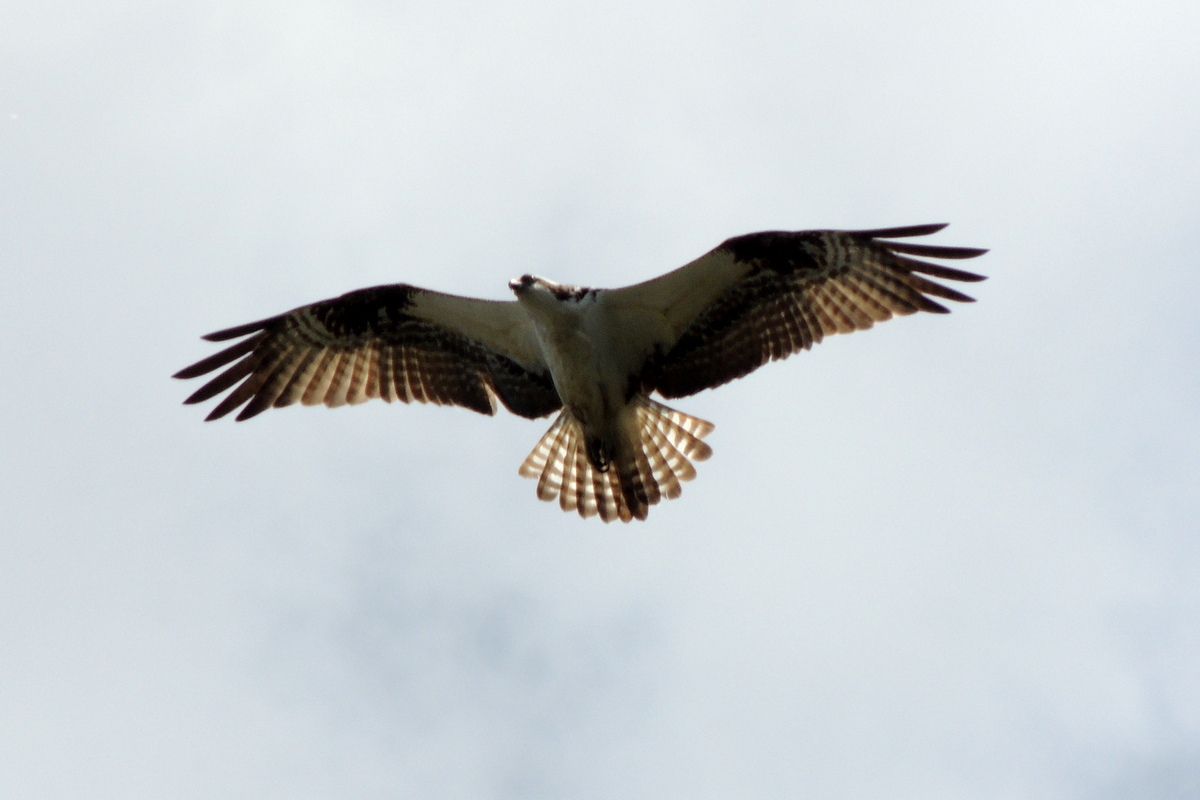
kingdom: Animalia
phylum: Chordata
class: Aves
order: Accipitriformes
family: Pandionidae
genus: Pandion
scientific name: Pandion haliaetus
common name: Osprey
